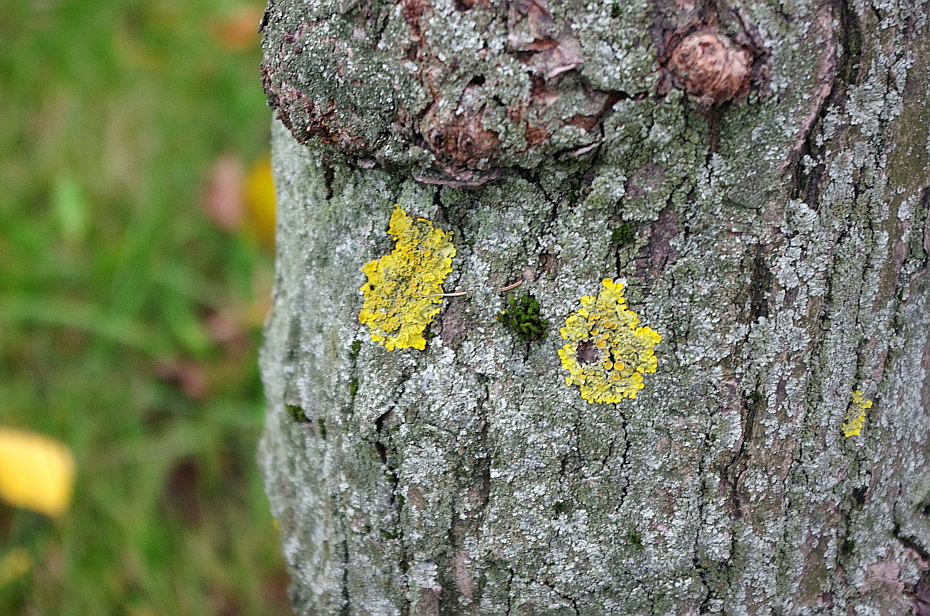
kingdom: Fungi
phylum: Ascomycota
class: Lecanoromycetes
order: Teloschistales
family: Teloschistaceae
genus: Xanthoria
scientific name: Xanthoria parietina
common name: Common orange lichen
